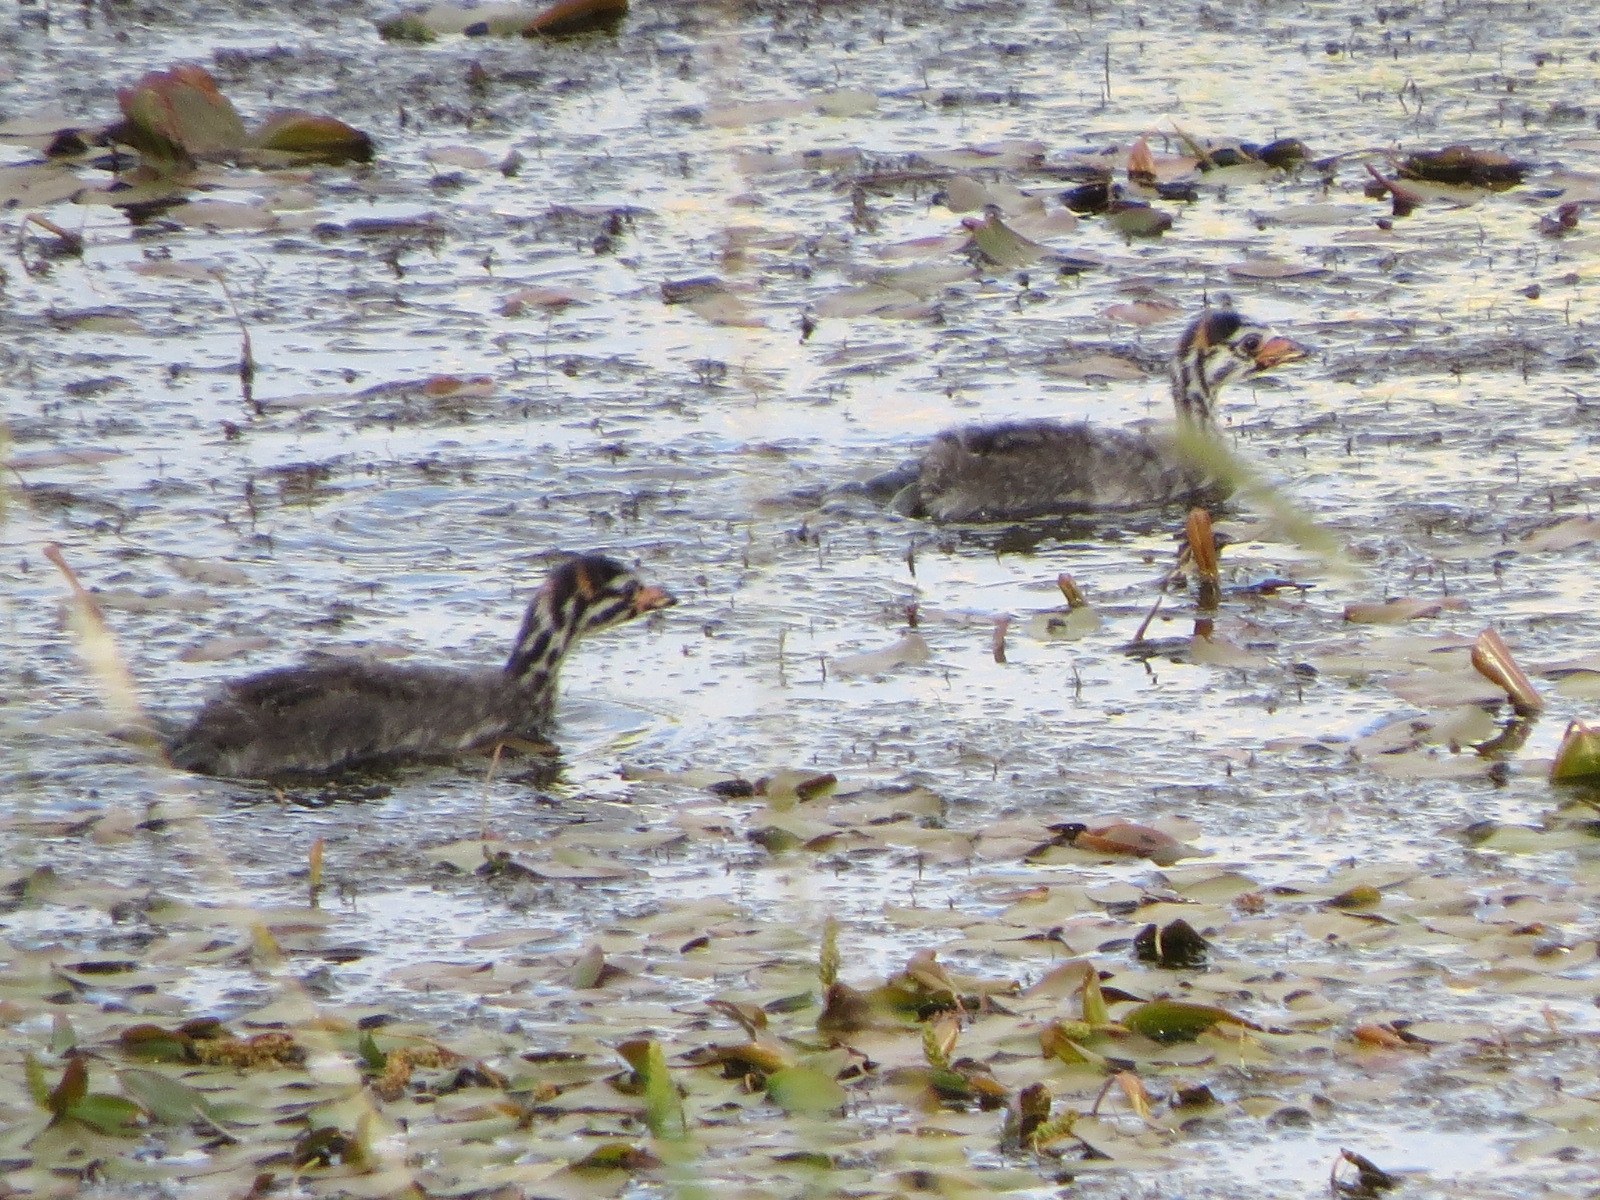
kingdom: Animalia
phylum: Chordata
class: Aves
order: Podicipediformes
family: Podicipedidae
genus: Podilymbus
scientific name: Podilymbus podiceps
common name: Pied-billed grebe
